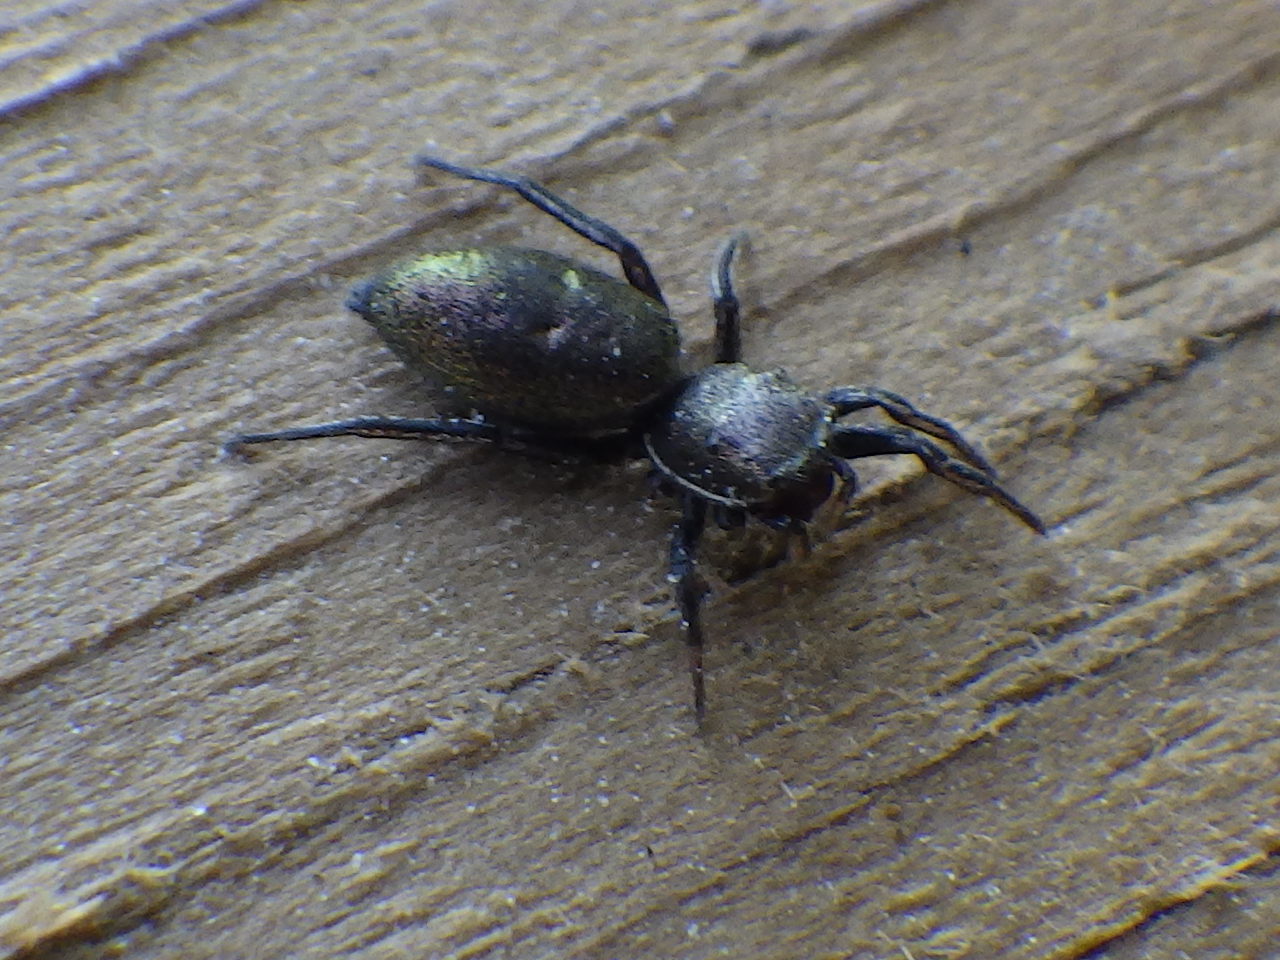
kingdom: Animalia
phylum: Arthropoda
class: Arachnida
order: Araneae
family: Salticidae
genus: Tutelina
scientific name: Tutelina elegans
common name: Thin-spined jumping spider
